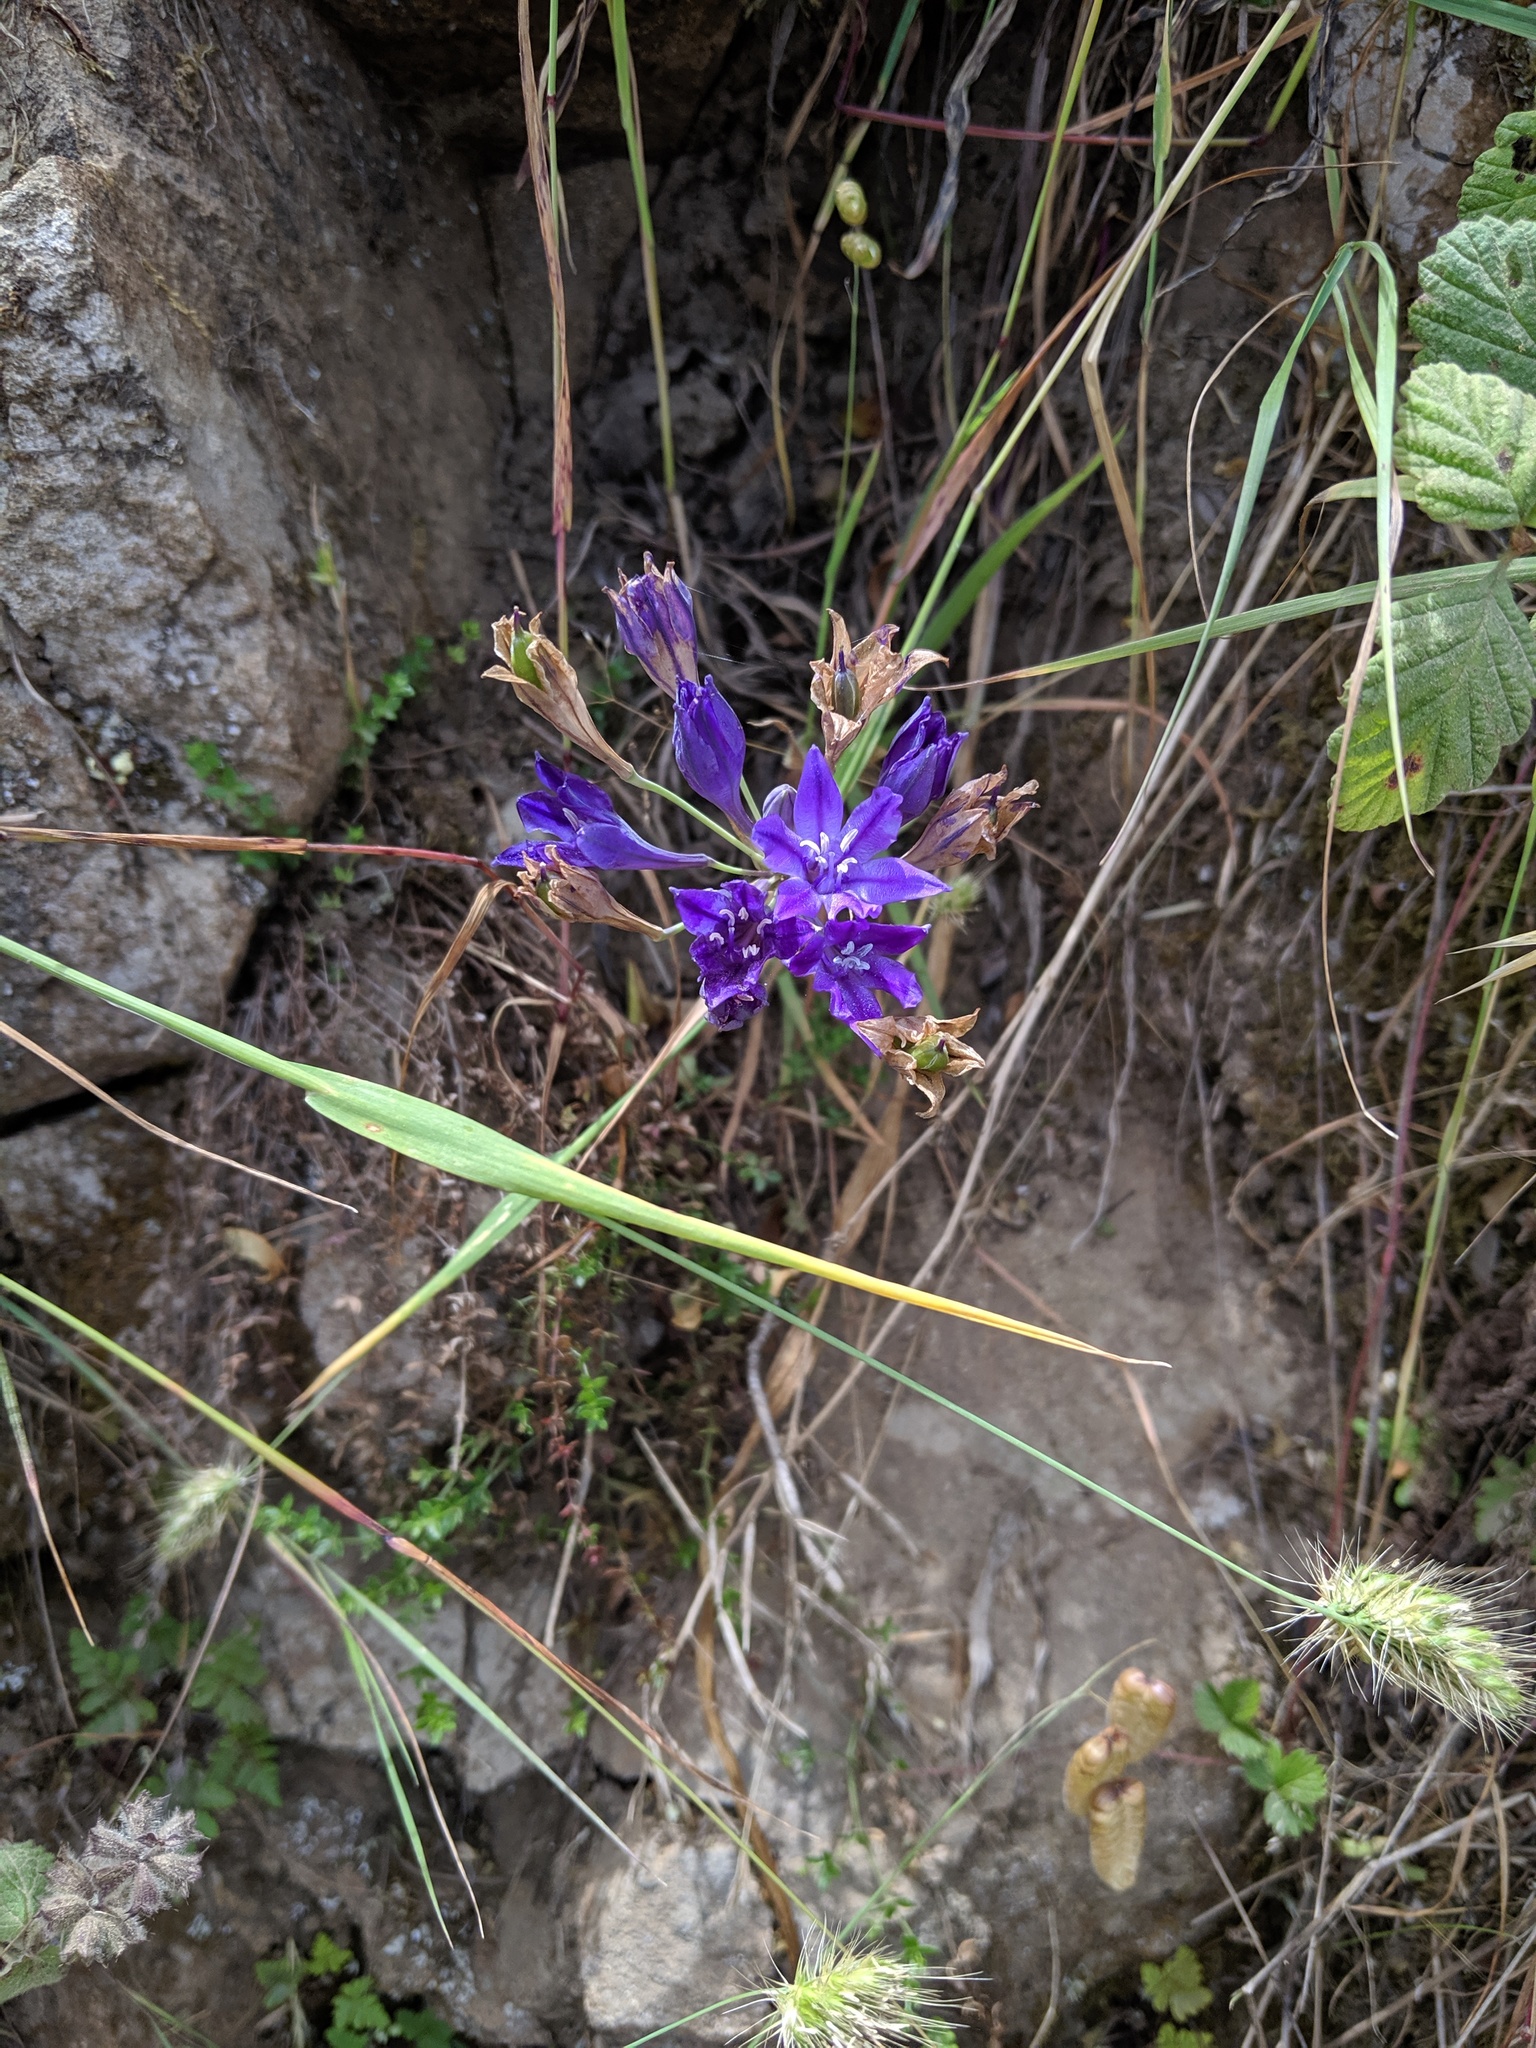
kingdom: Plantae
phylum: Tracheophyta
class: Liliopsida
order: Asparagales
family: Asparagaceae
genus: Triteleia
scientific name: Triteleia laxa
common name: Triplet-lily
